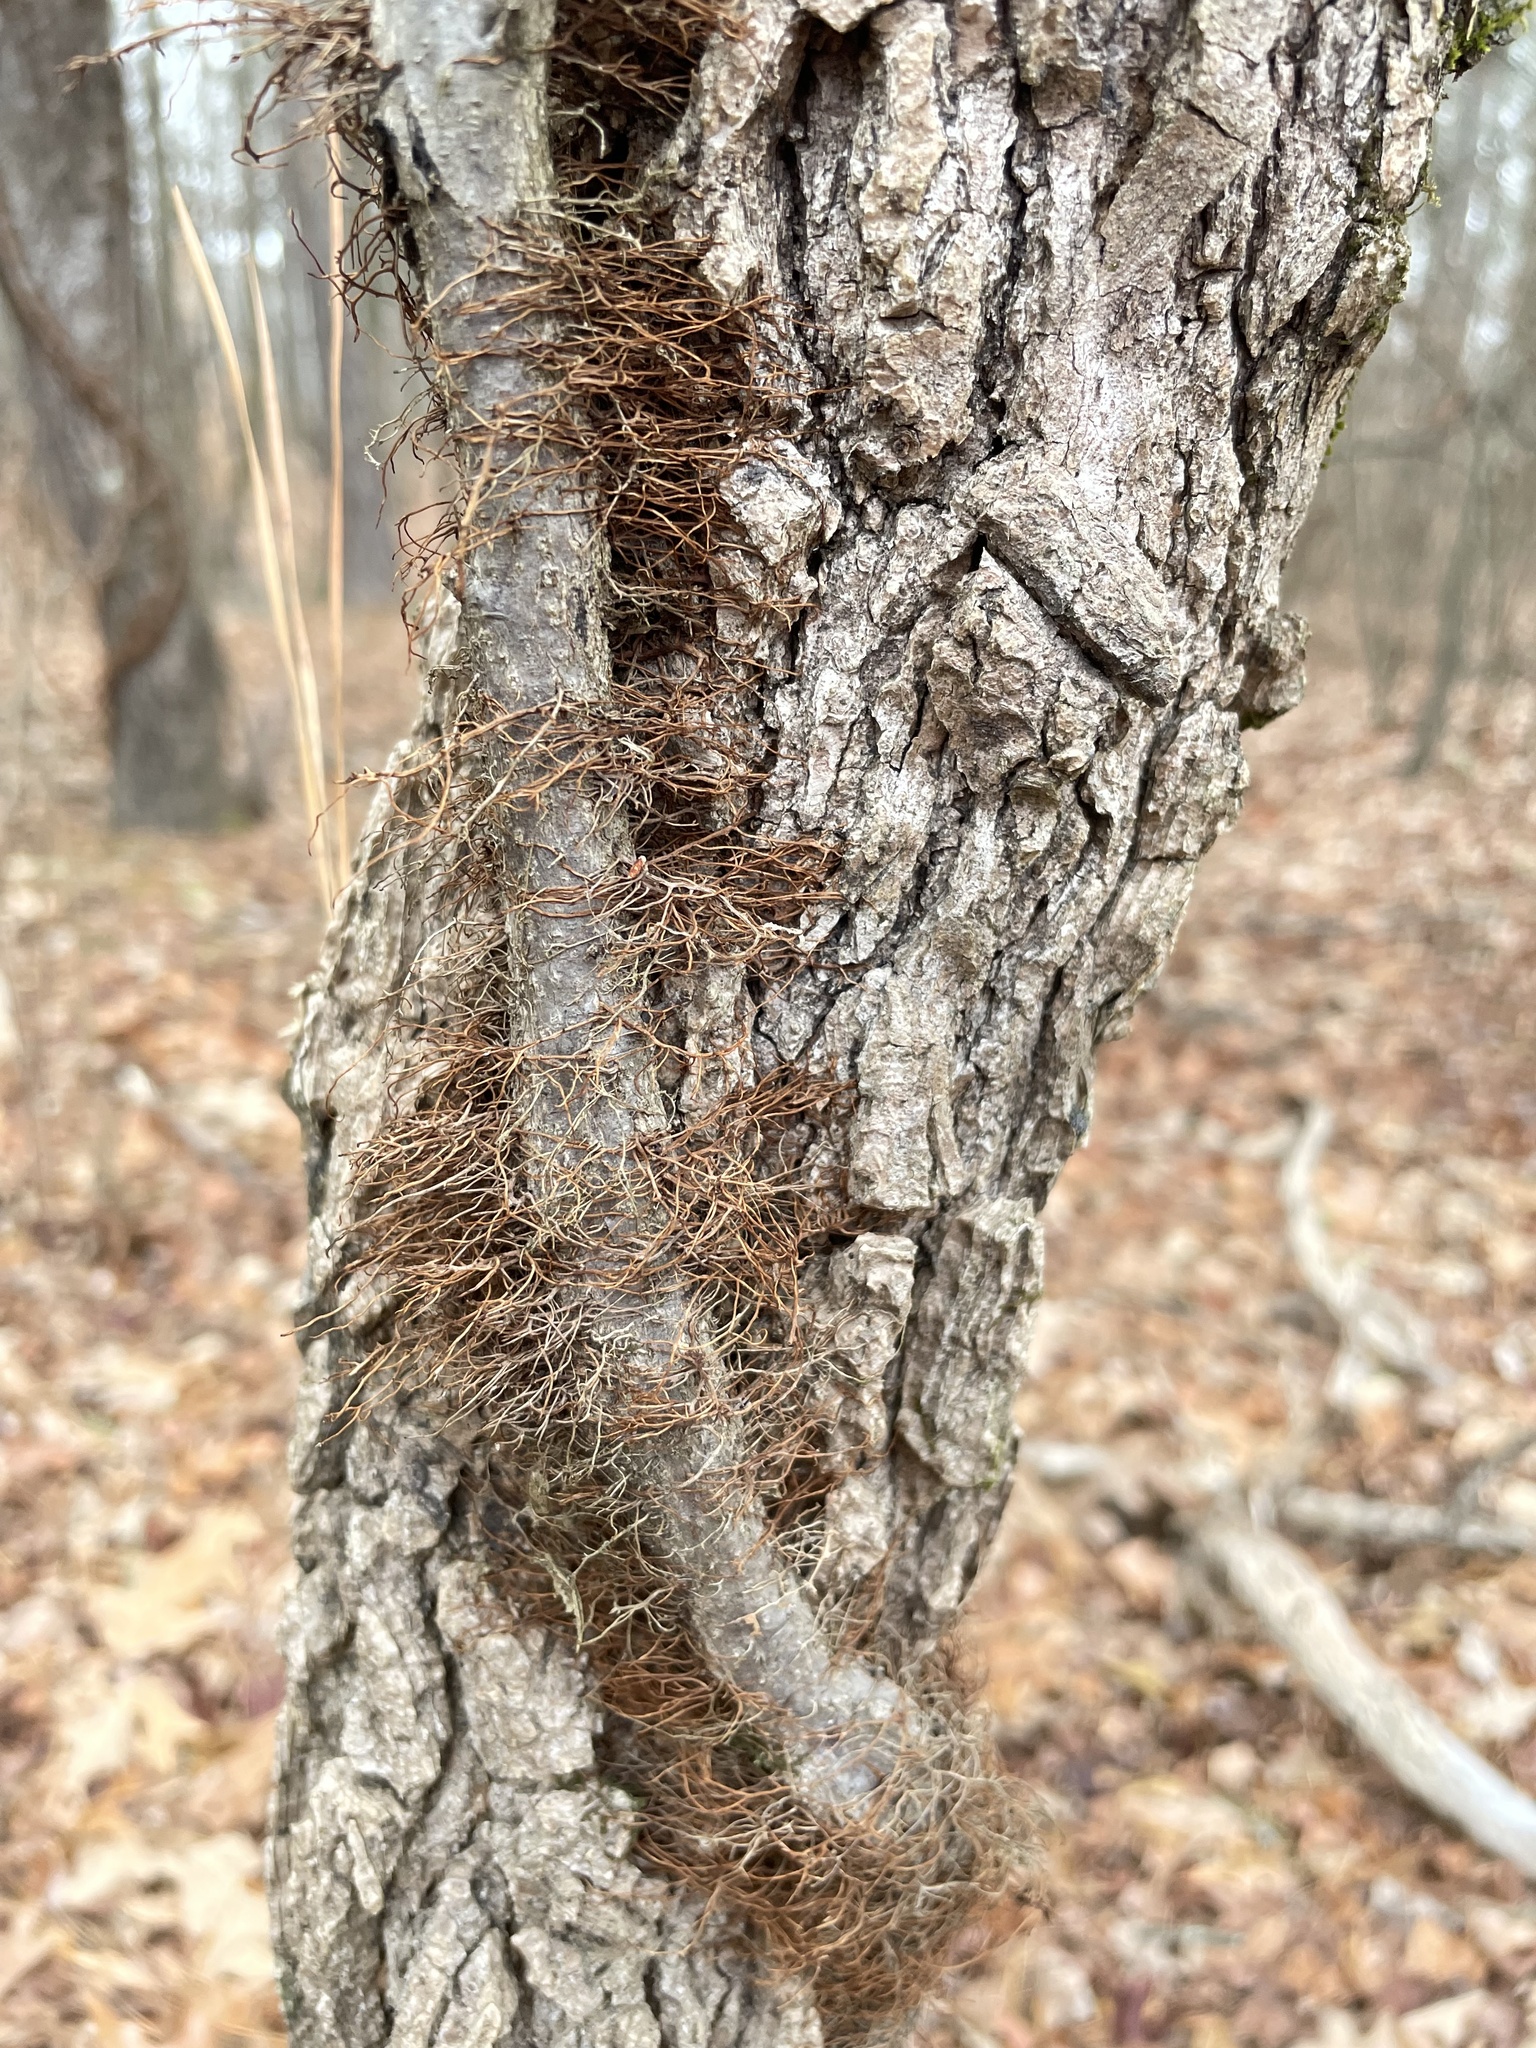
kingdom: Plantae
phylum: Tracheophyta
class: Magnoliopsida
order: Sapindales
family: Anacardiaceae
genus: Toxicodendron
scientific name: Toxicodendron radicans
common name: Poison ivy
